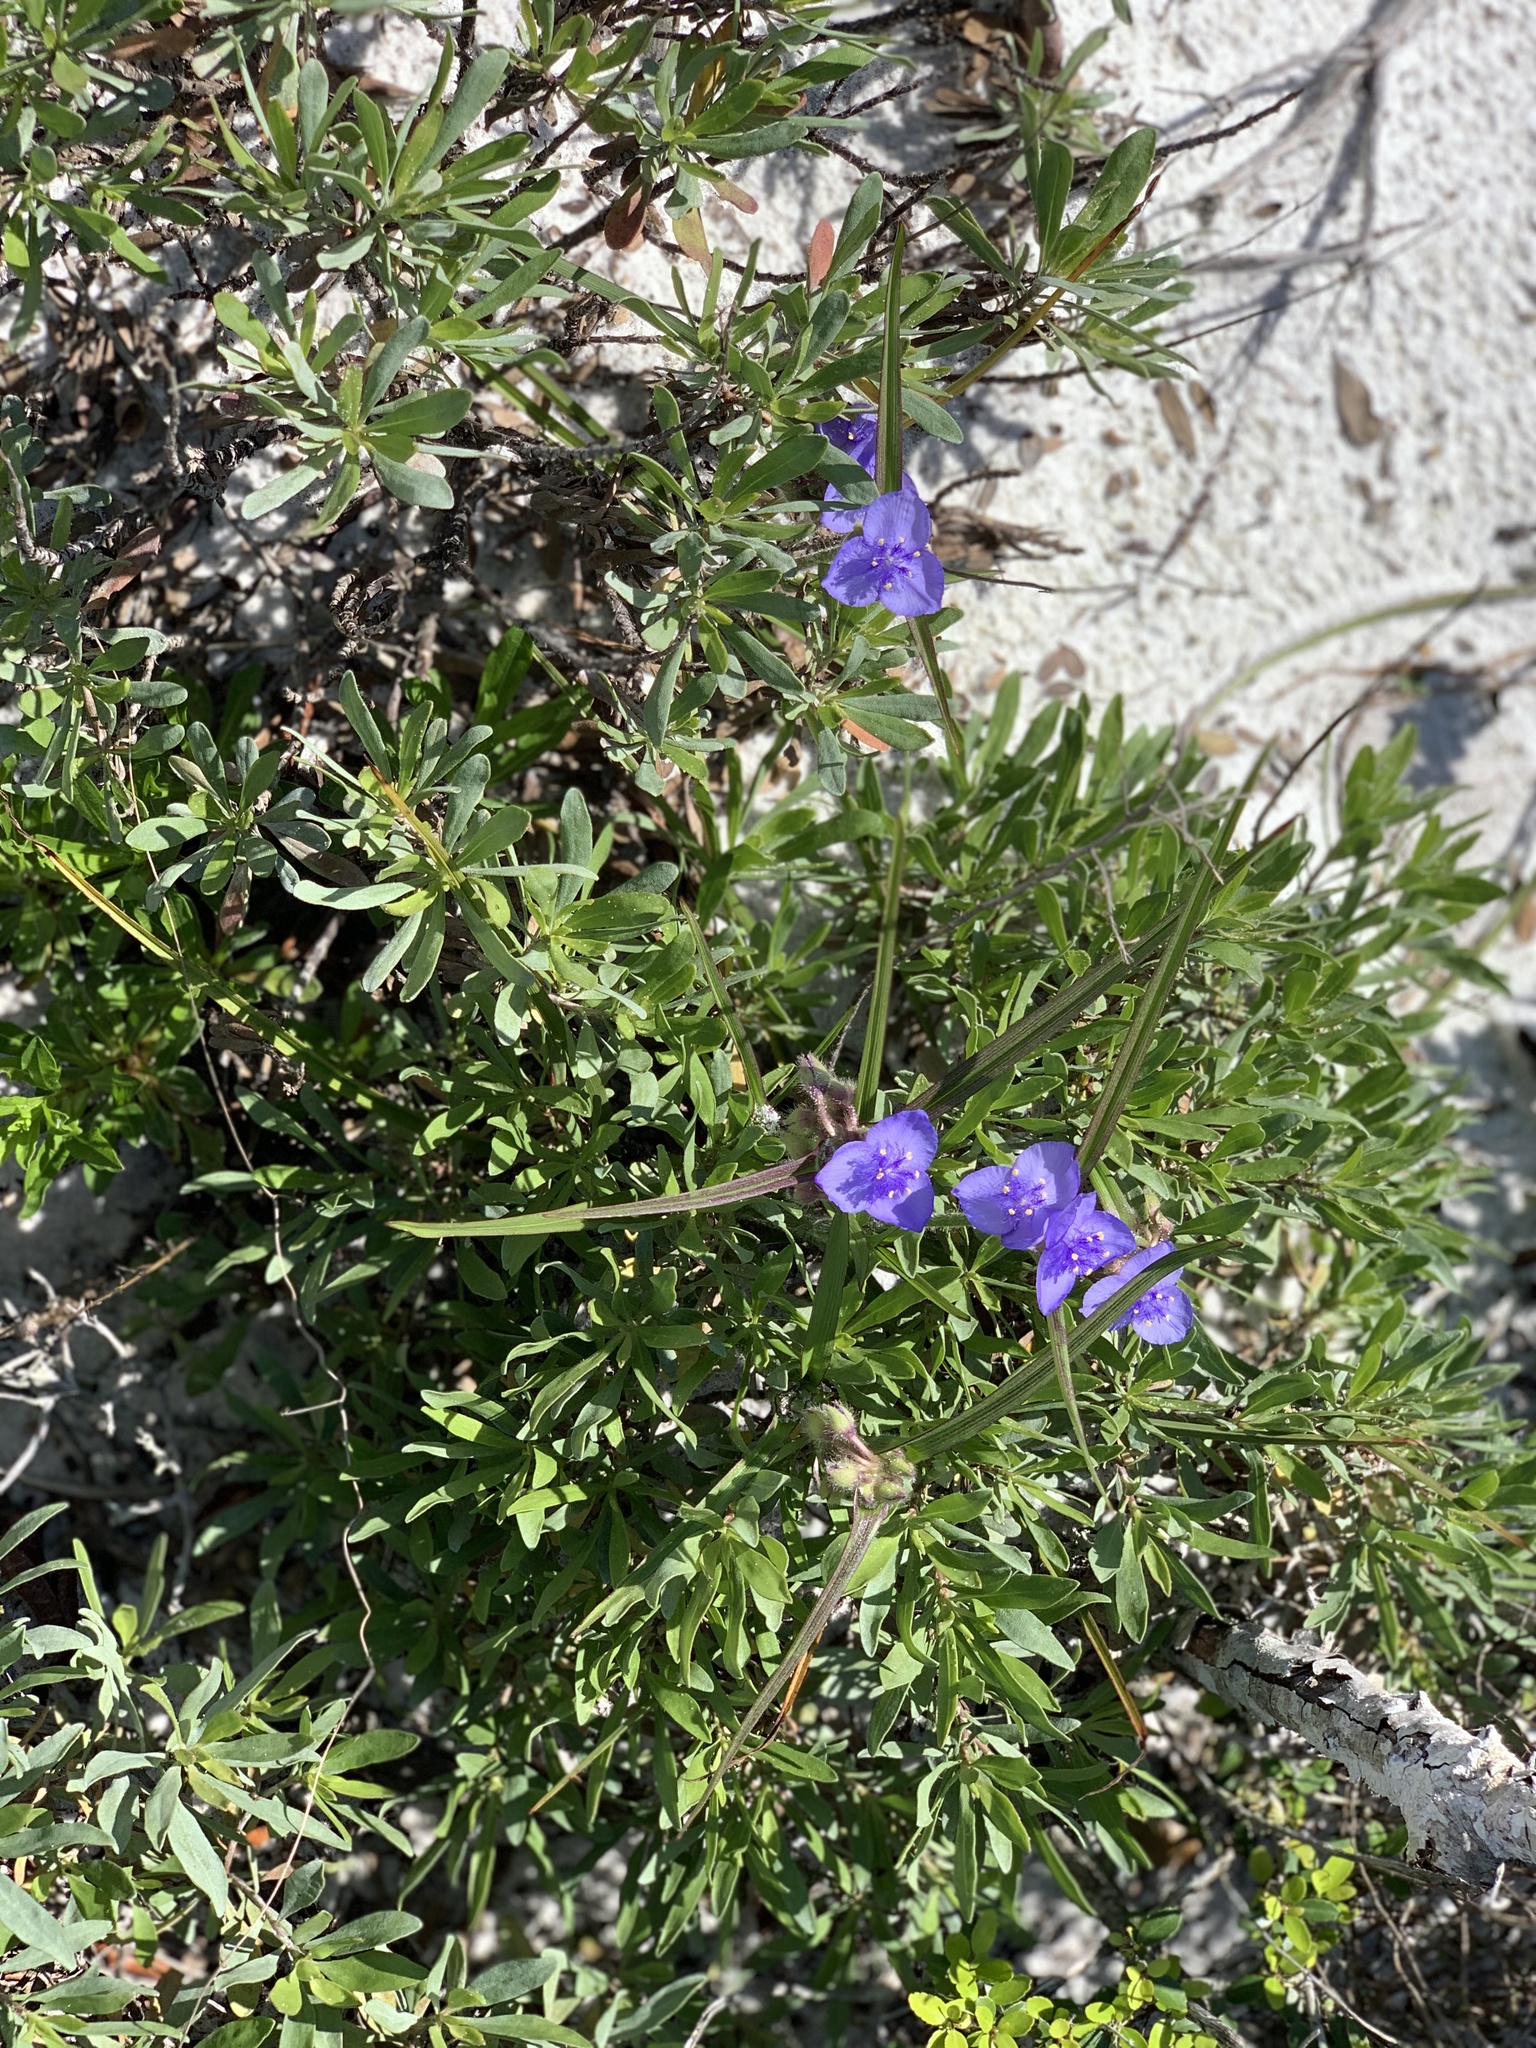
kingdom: Plantae
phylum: Tracheophyta
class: Liliopsida
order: Commelinales
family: Commelinaceae
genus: Tradescantia
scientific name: Tradescantia hirsutiflora
